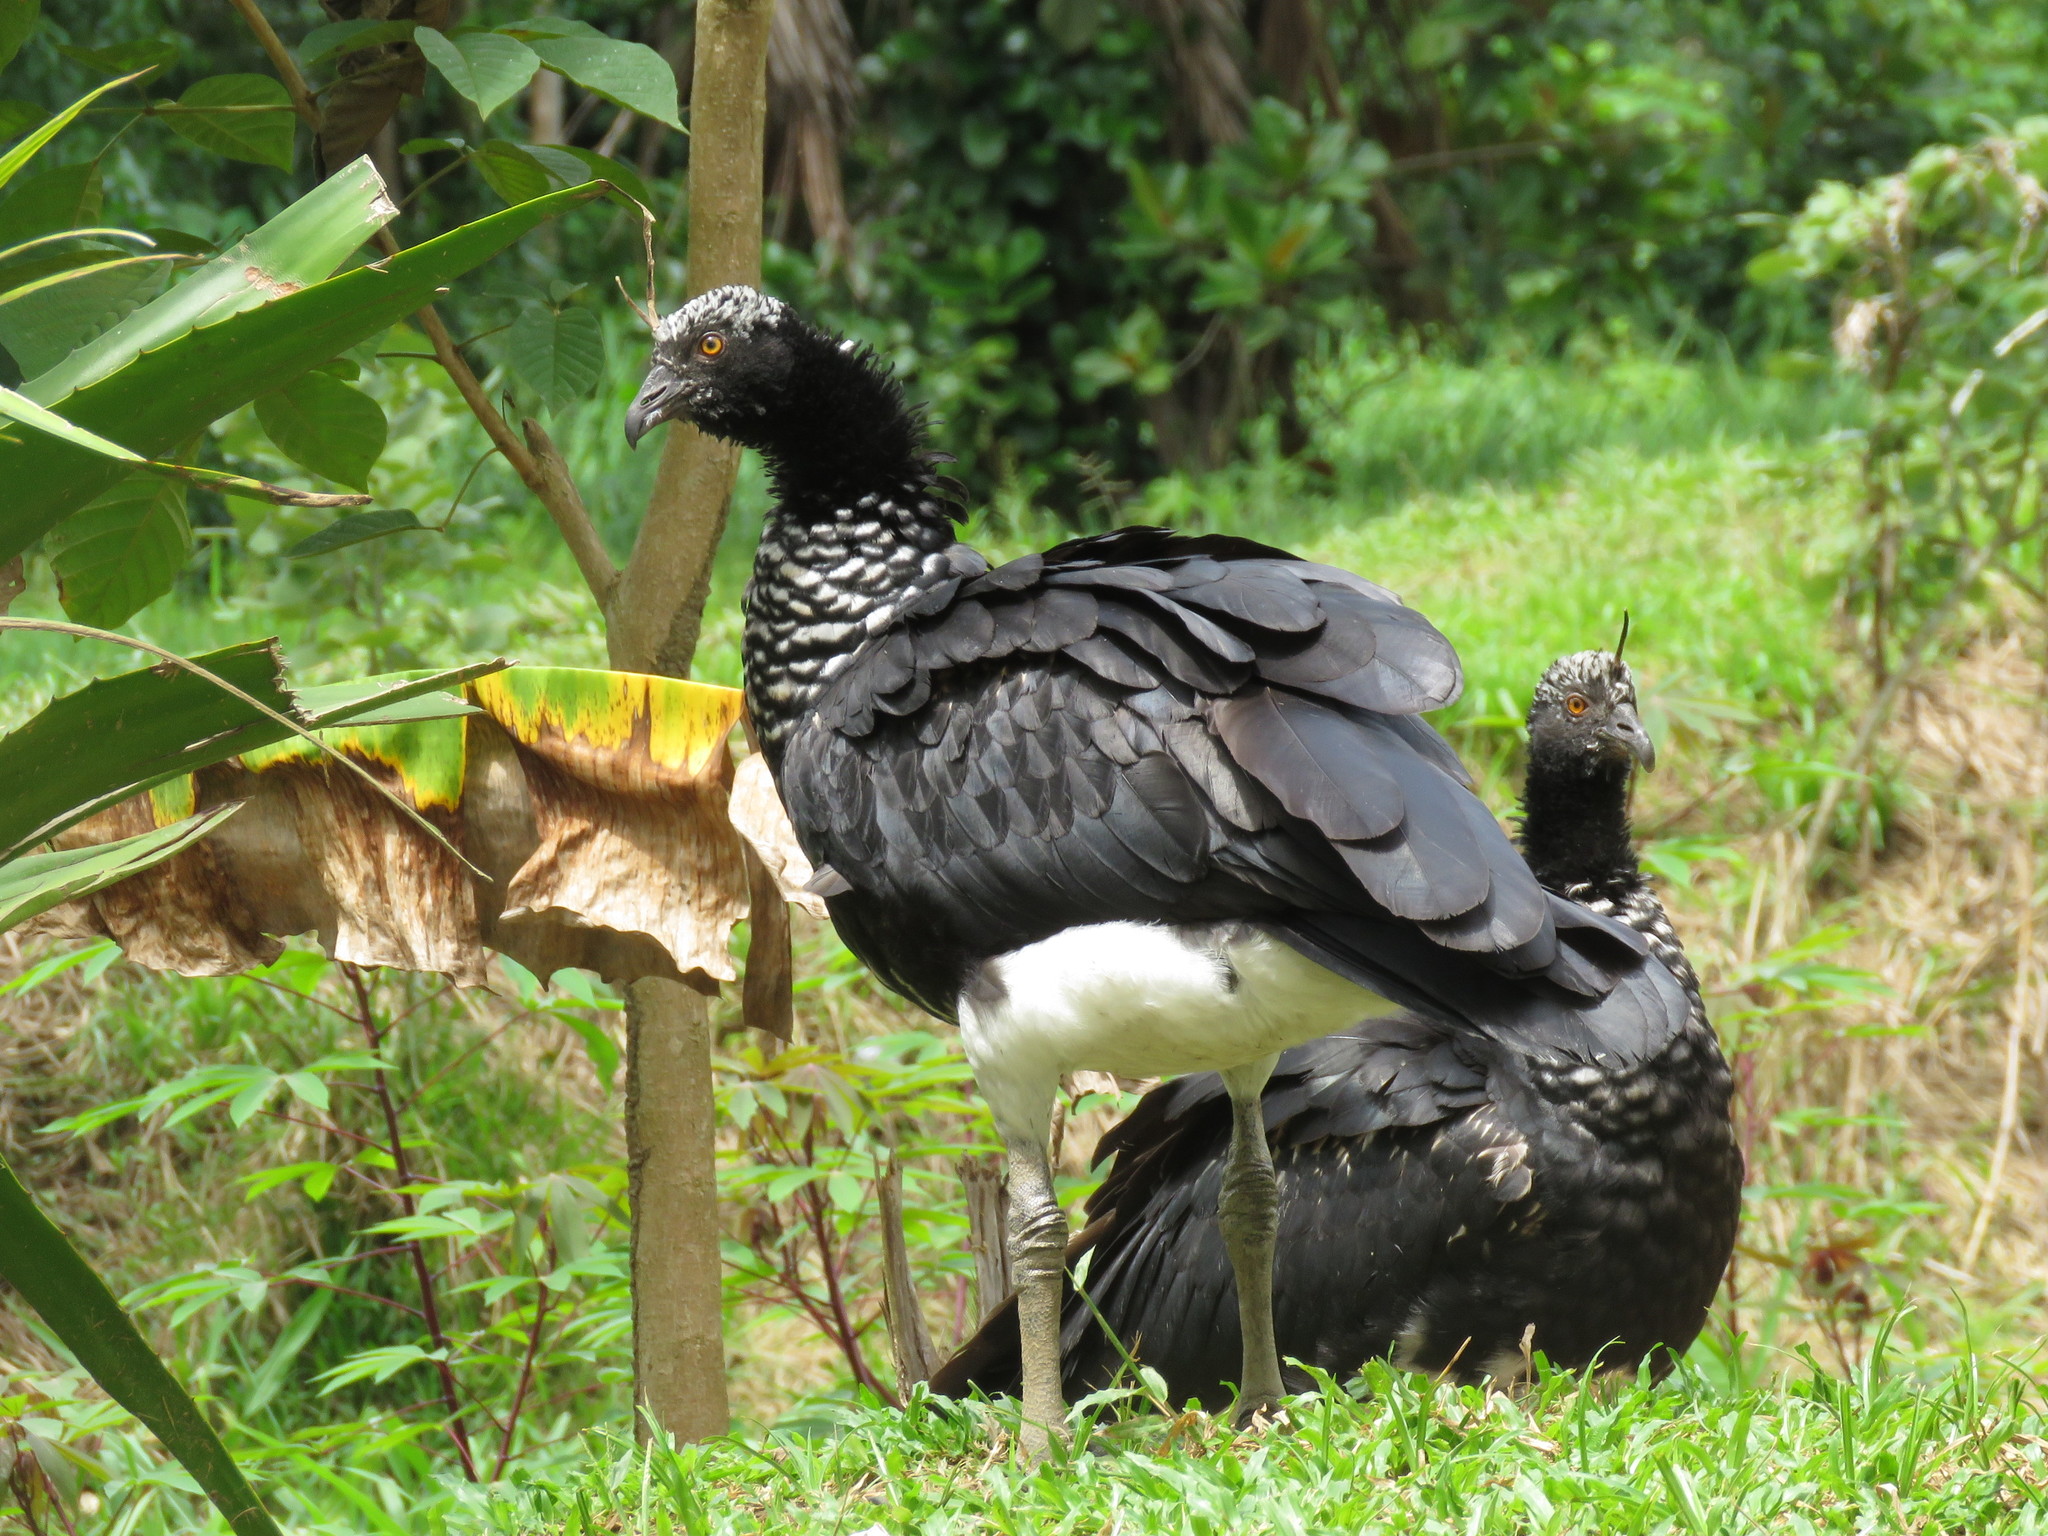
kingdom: Animalia
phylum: Chordata
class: Aves
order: Anseriformes
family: Anhimidae
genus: Anhima
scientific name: Anhima cornuta
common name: Horned screamer
